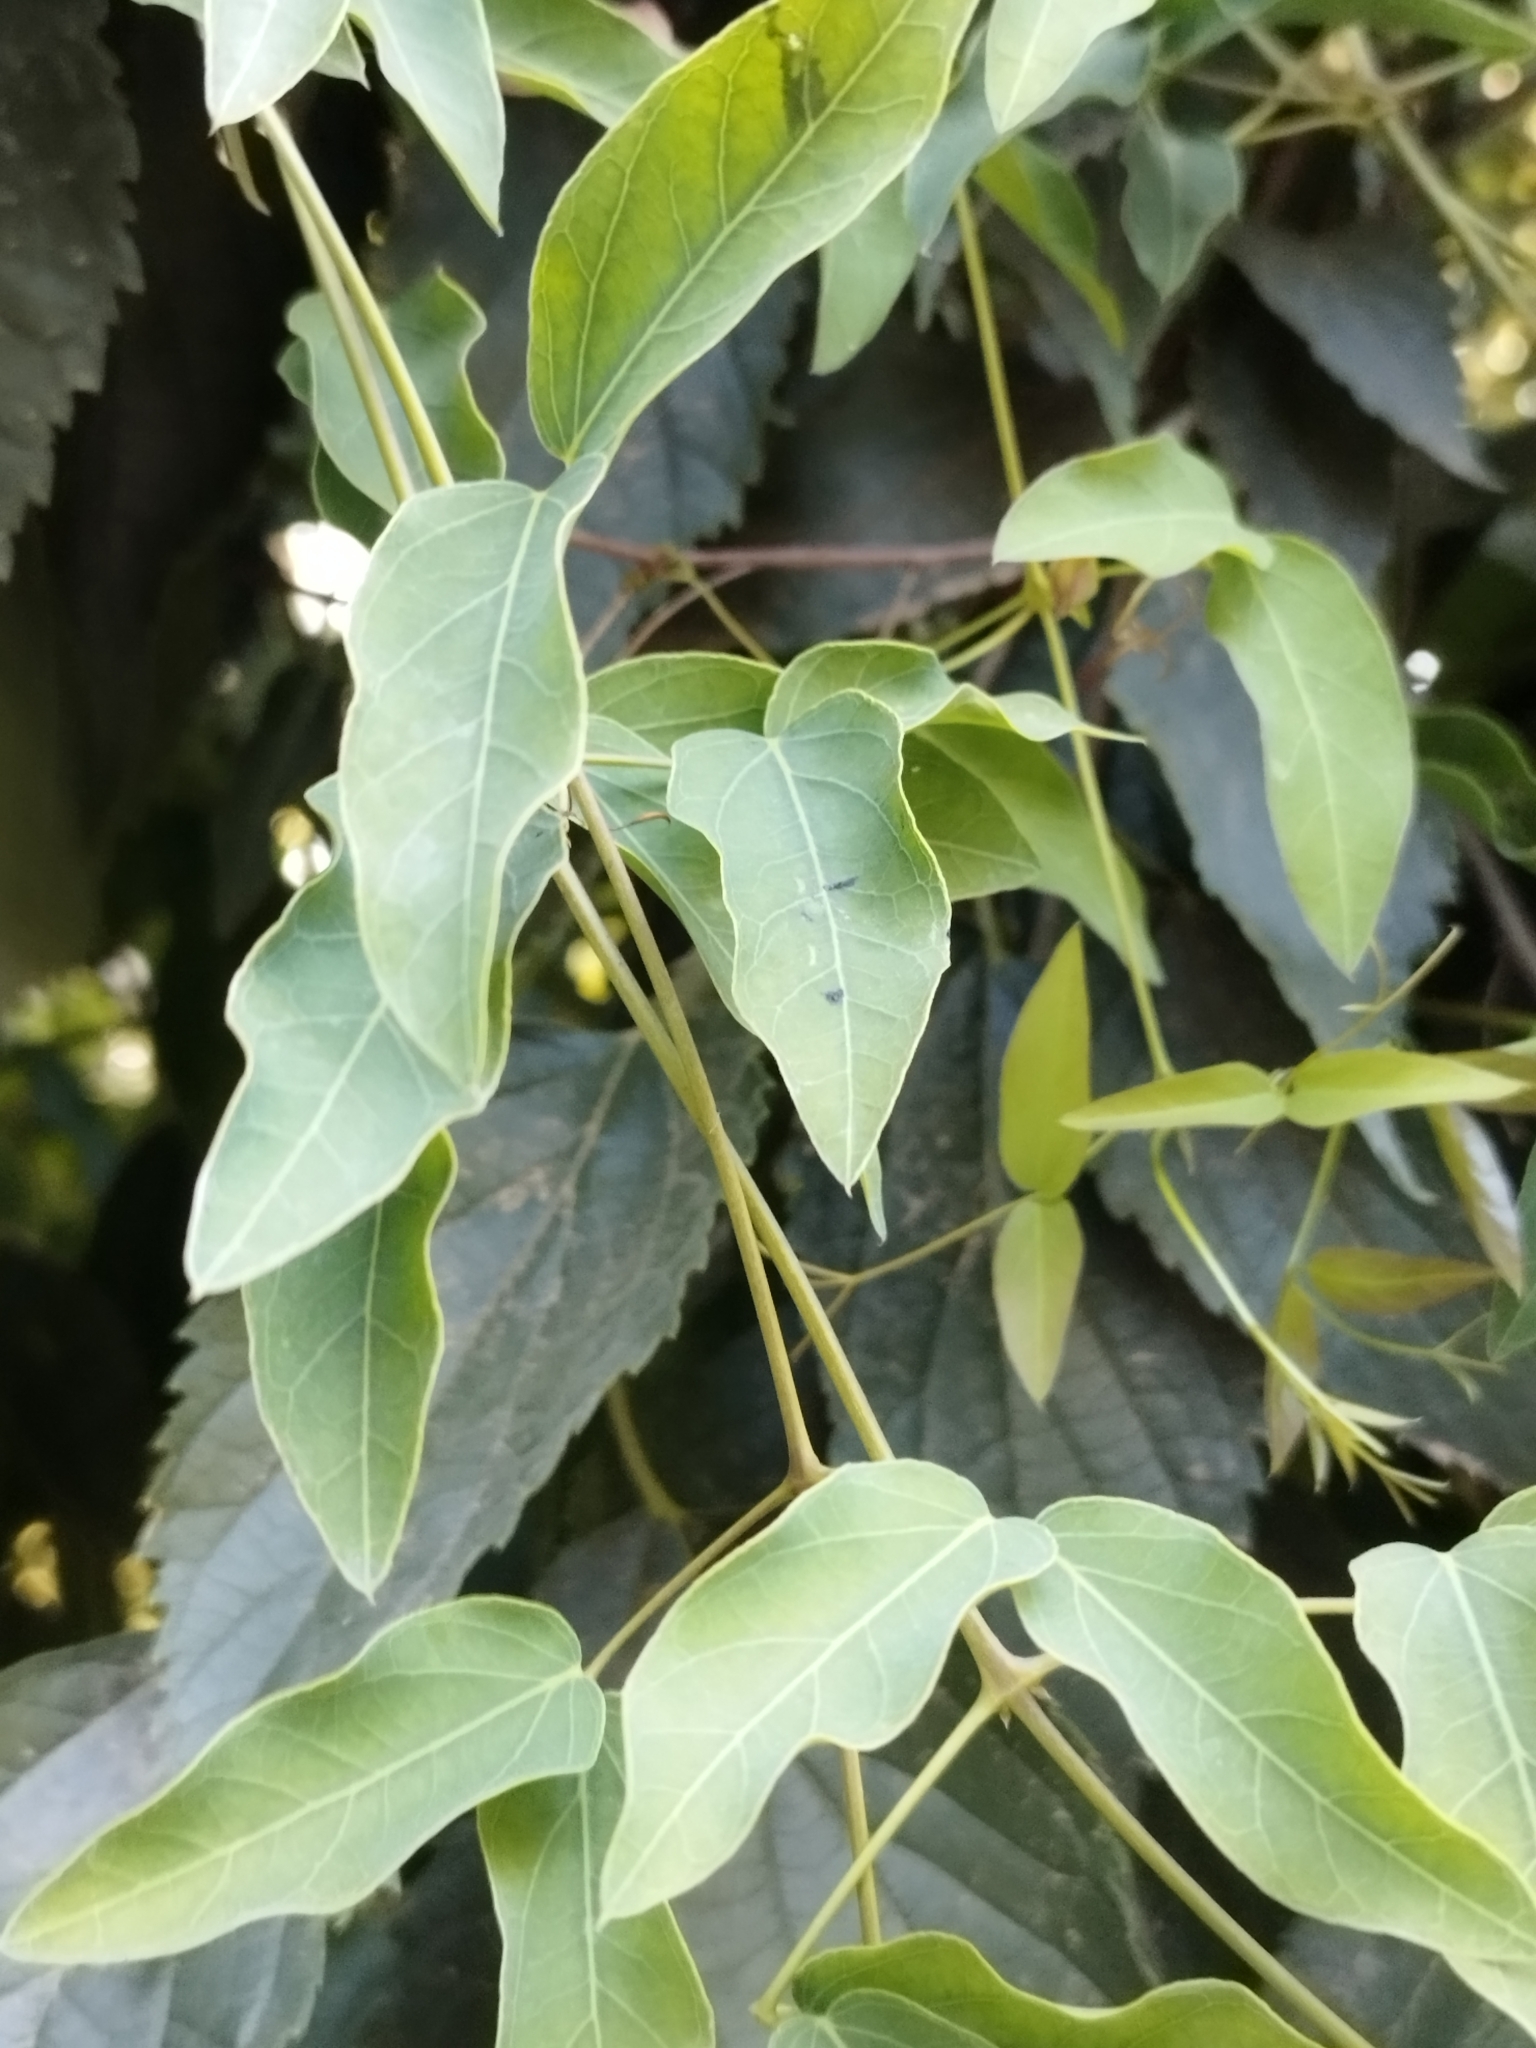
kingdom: Plantae
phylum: Tracheophyta
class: Magnoliopsida
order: Lamiales
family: Bignoniaceae
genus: Dolichandra
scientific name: Dolichandra cynanchoides
